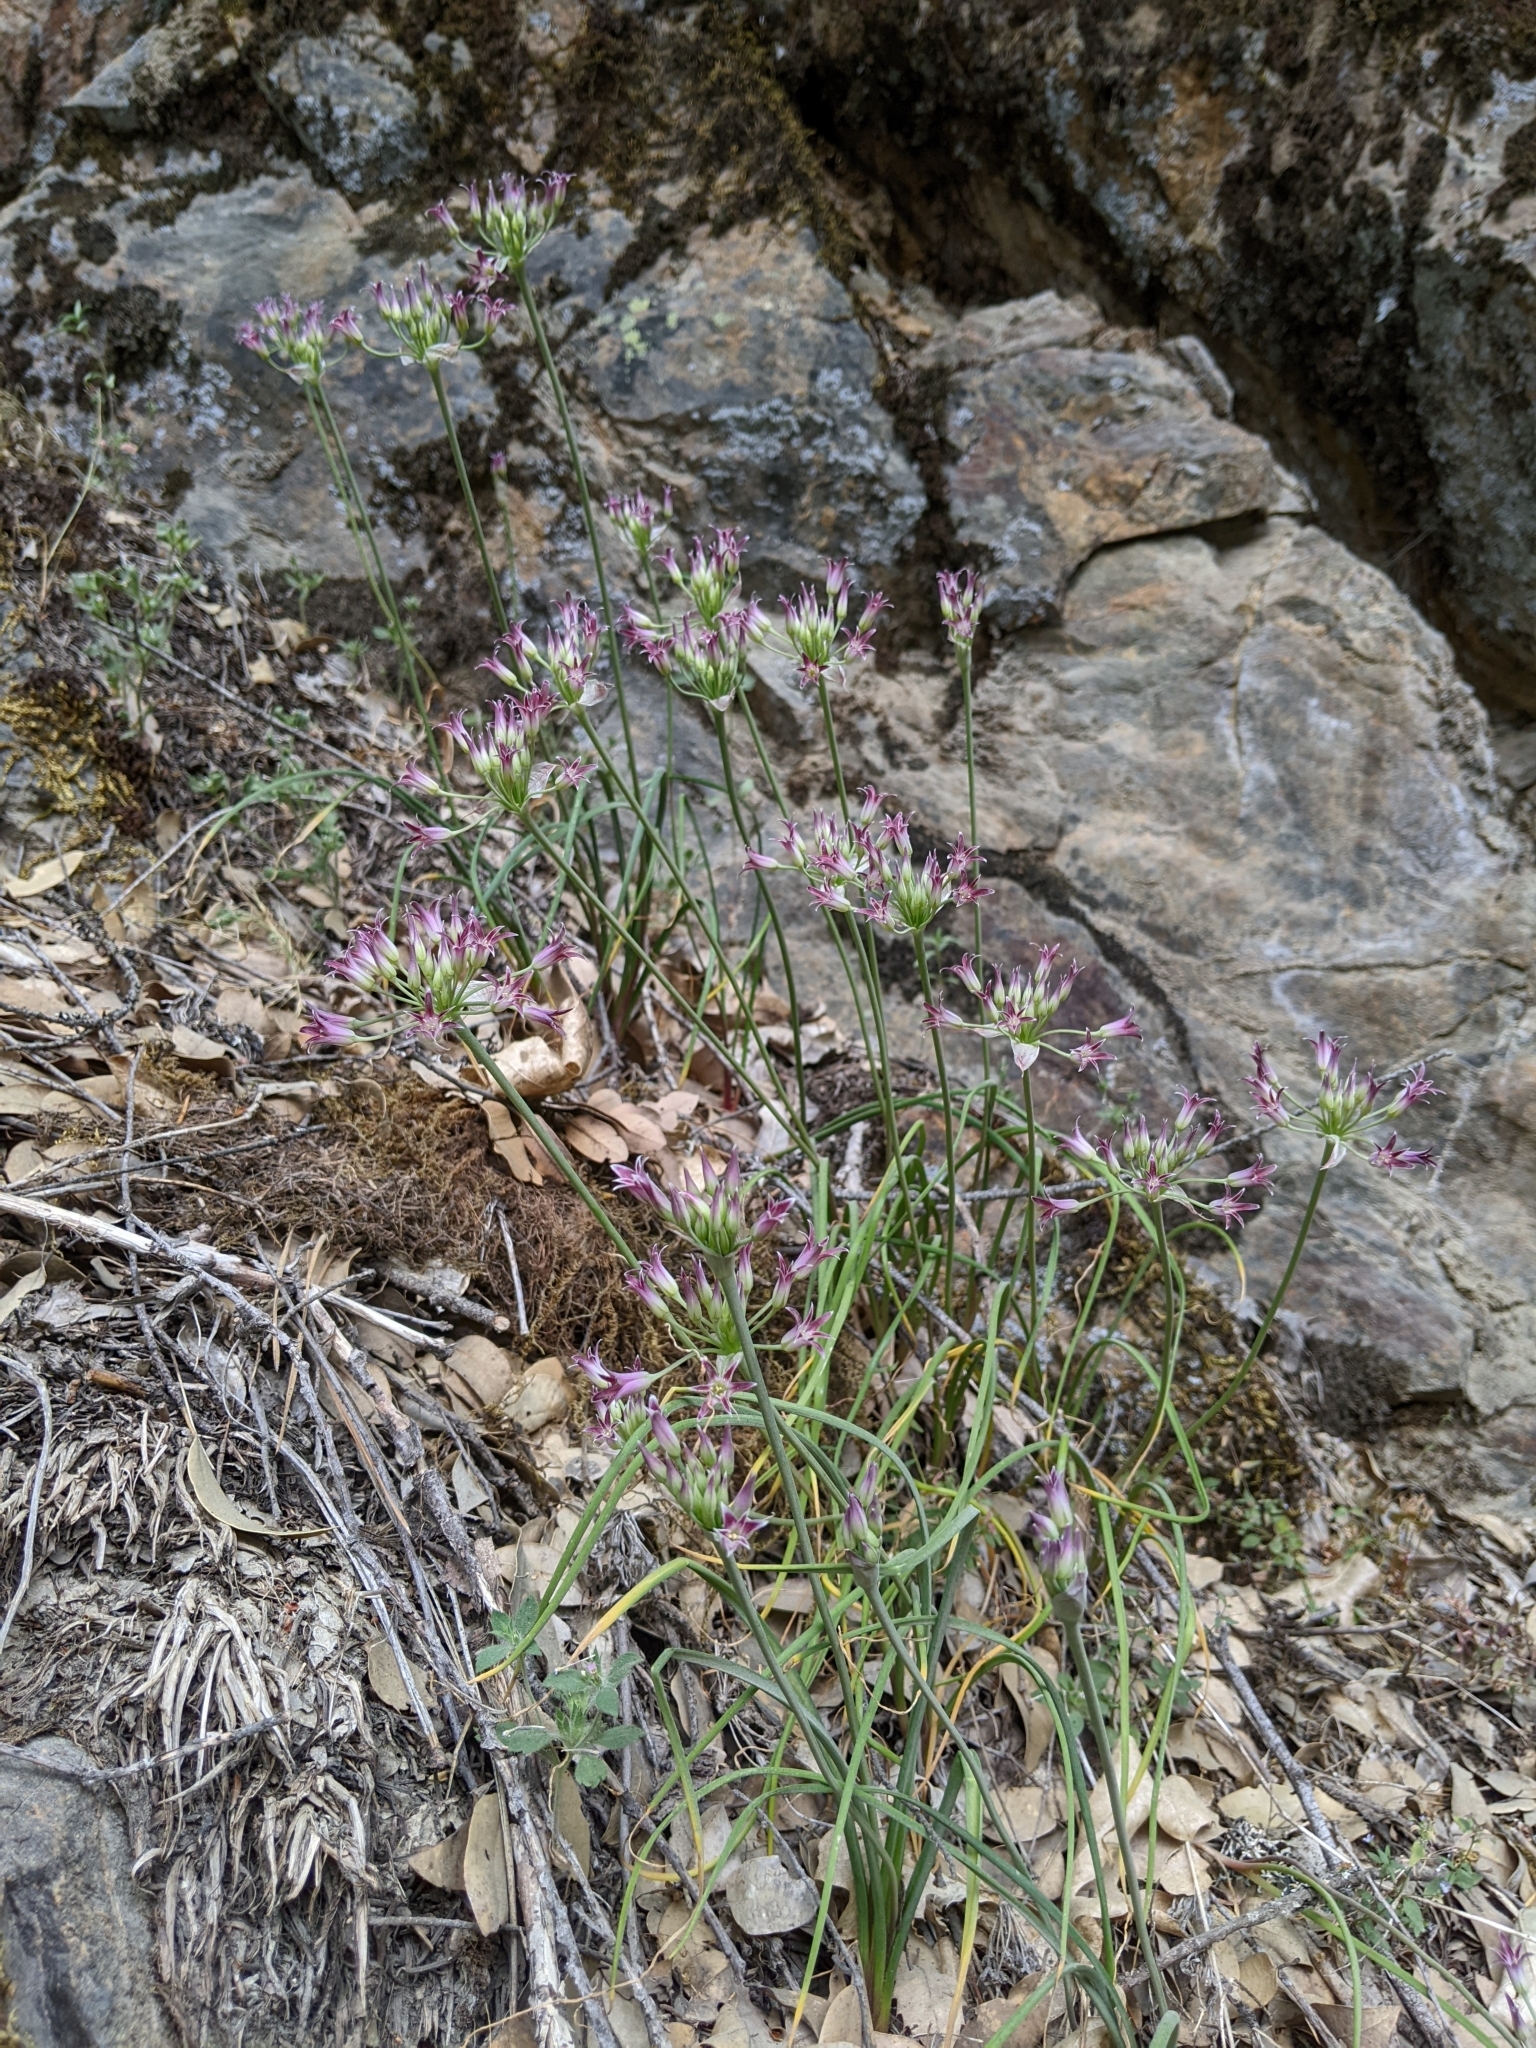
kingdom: Plantae
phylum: Tracheophyta
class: Liliopsida
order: Asparagales
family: Amaryllidaceae
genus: Allium
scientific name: Allium bolanderi
